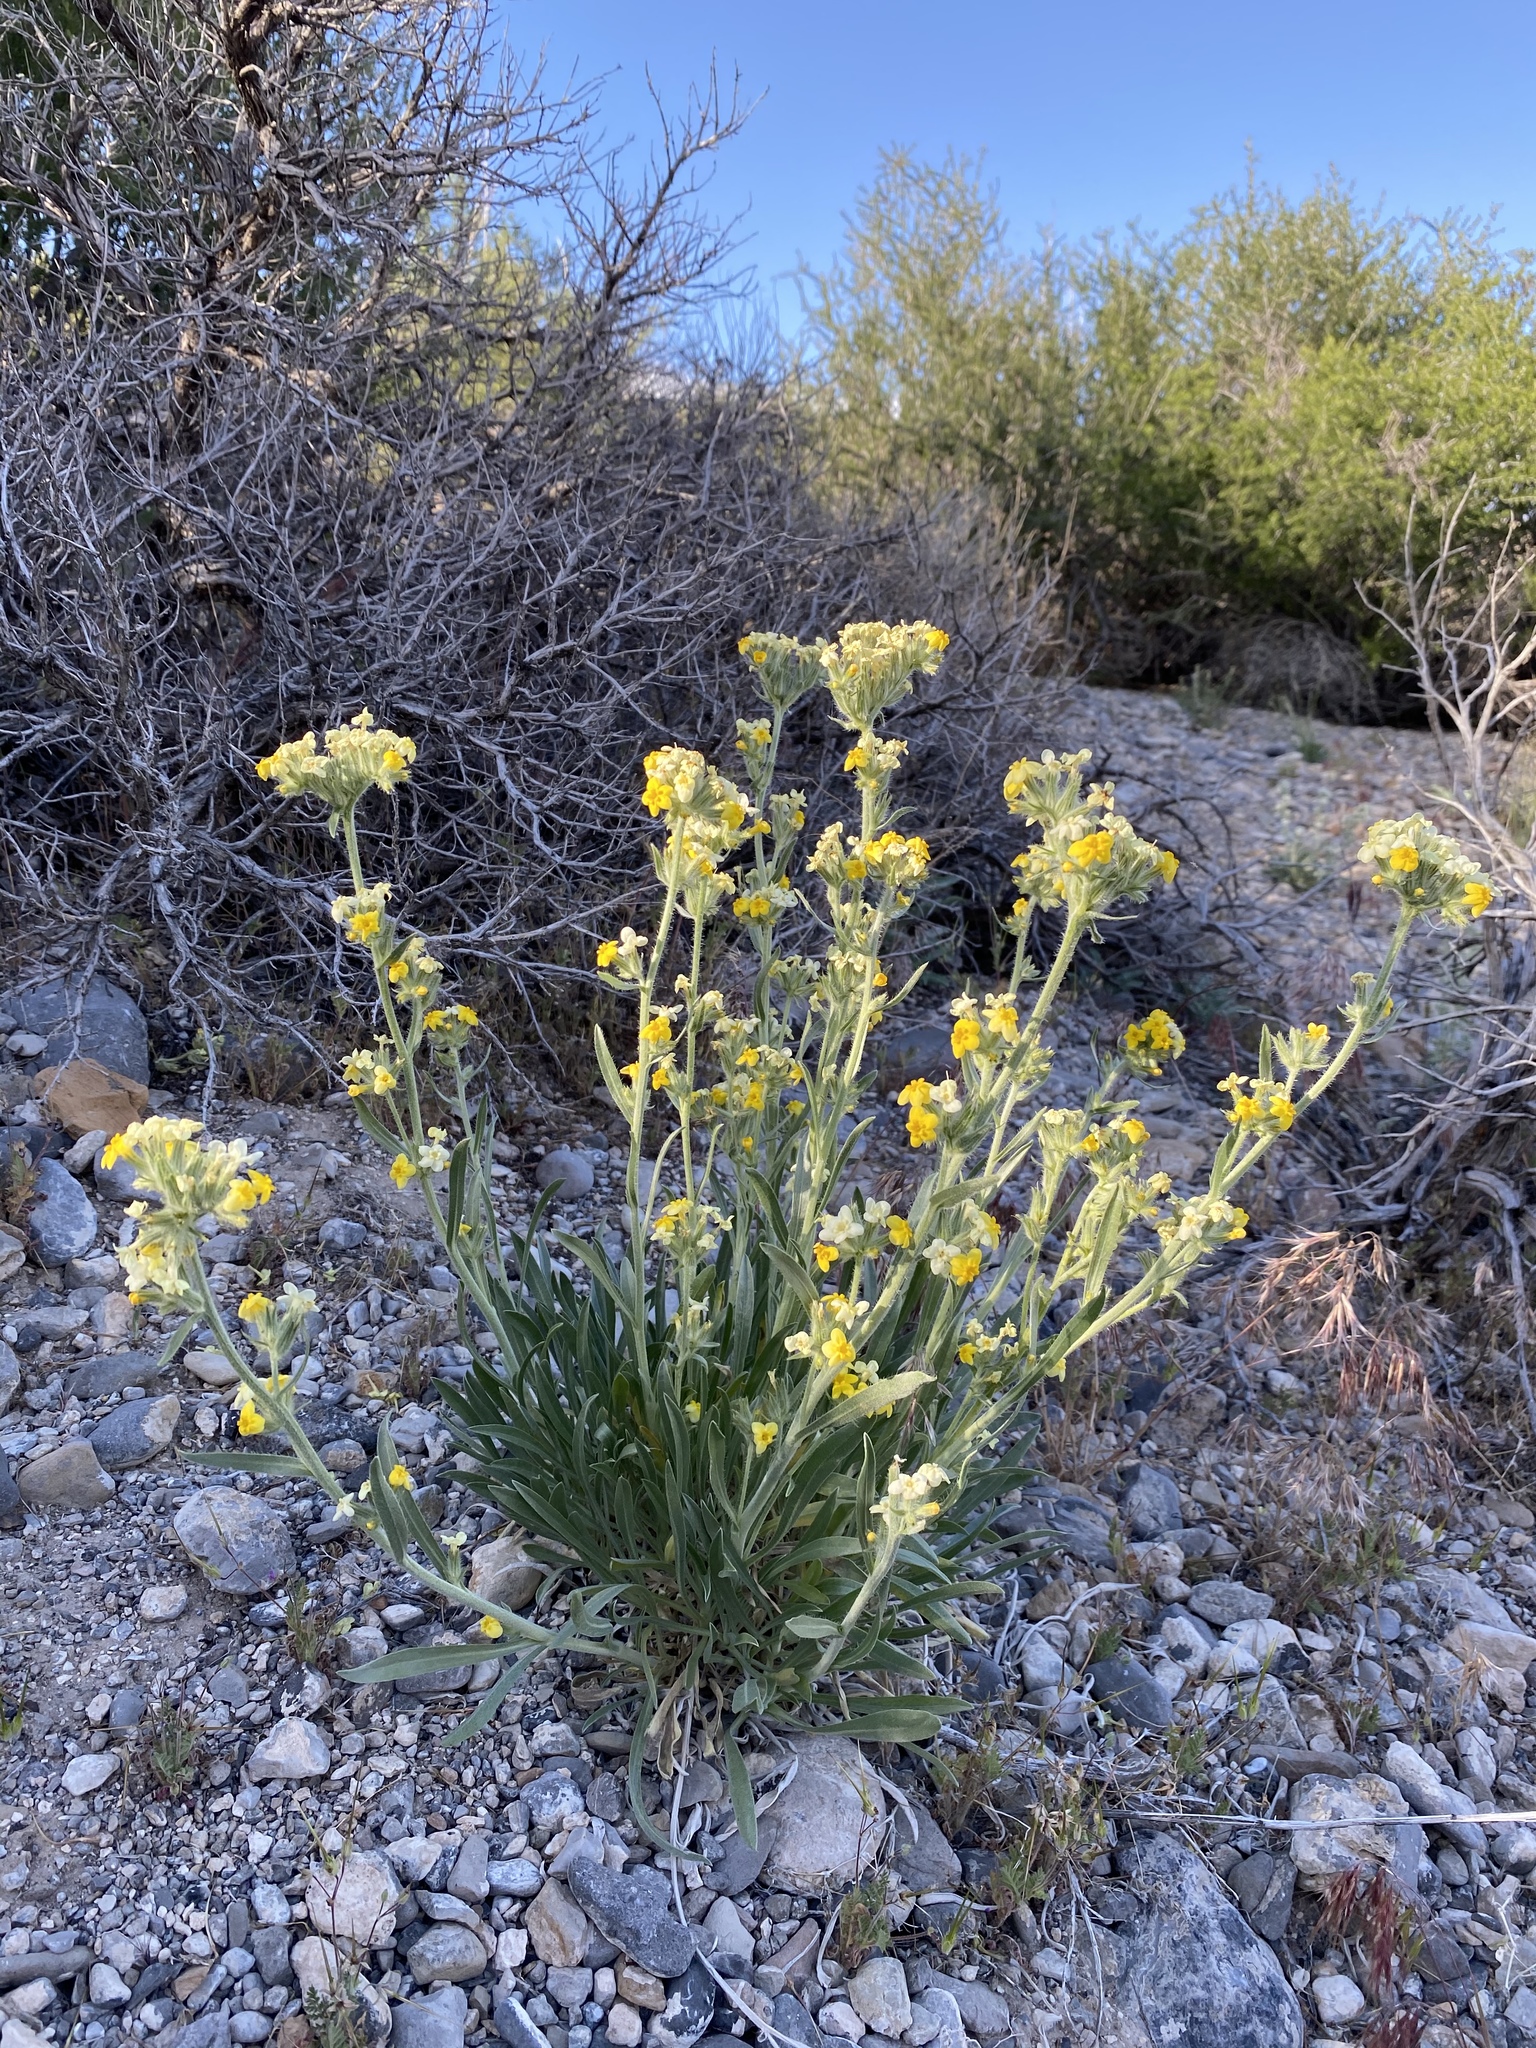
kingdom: Plantae
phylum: Tracheophyta
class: Magnoliopsida
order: Boraginales
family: Boraginaceae
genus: Oreocarya
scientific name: Oreocarya confertiflora
